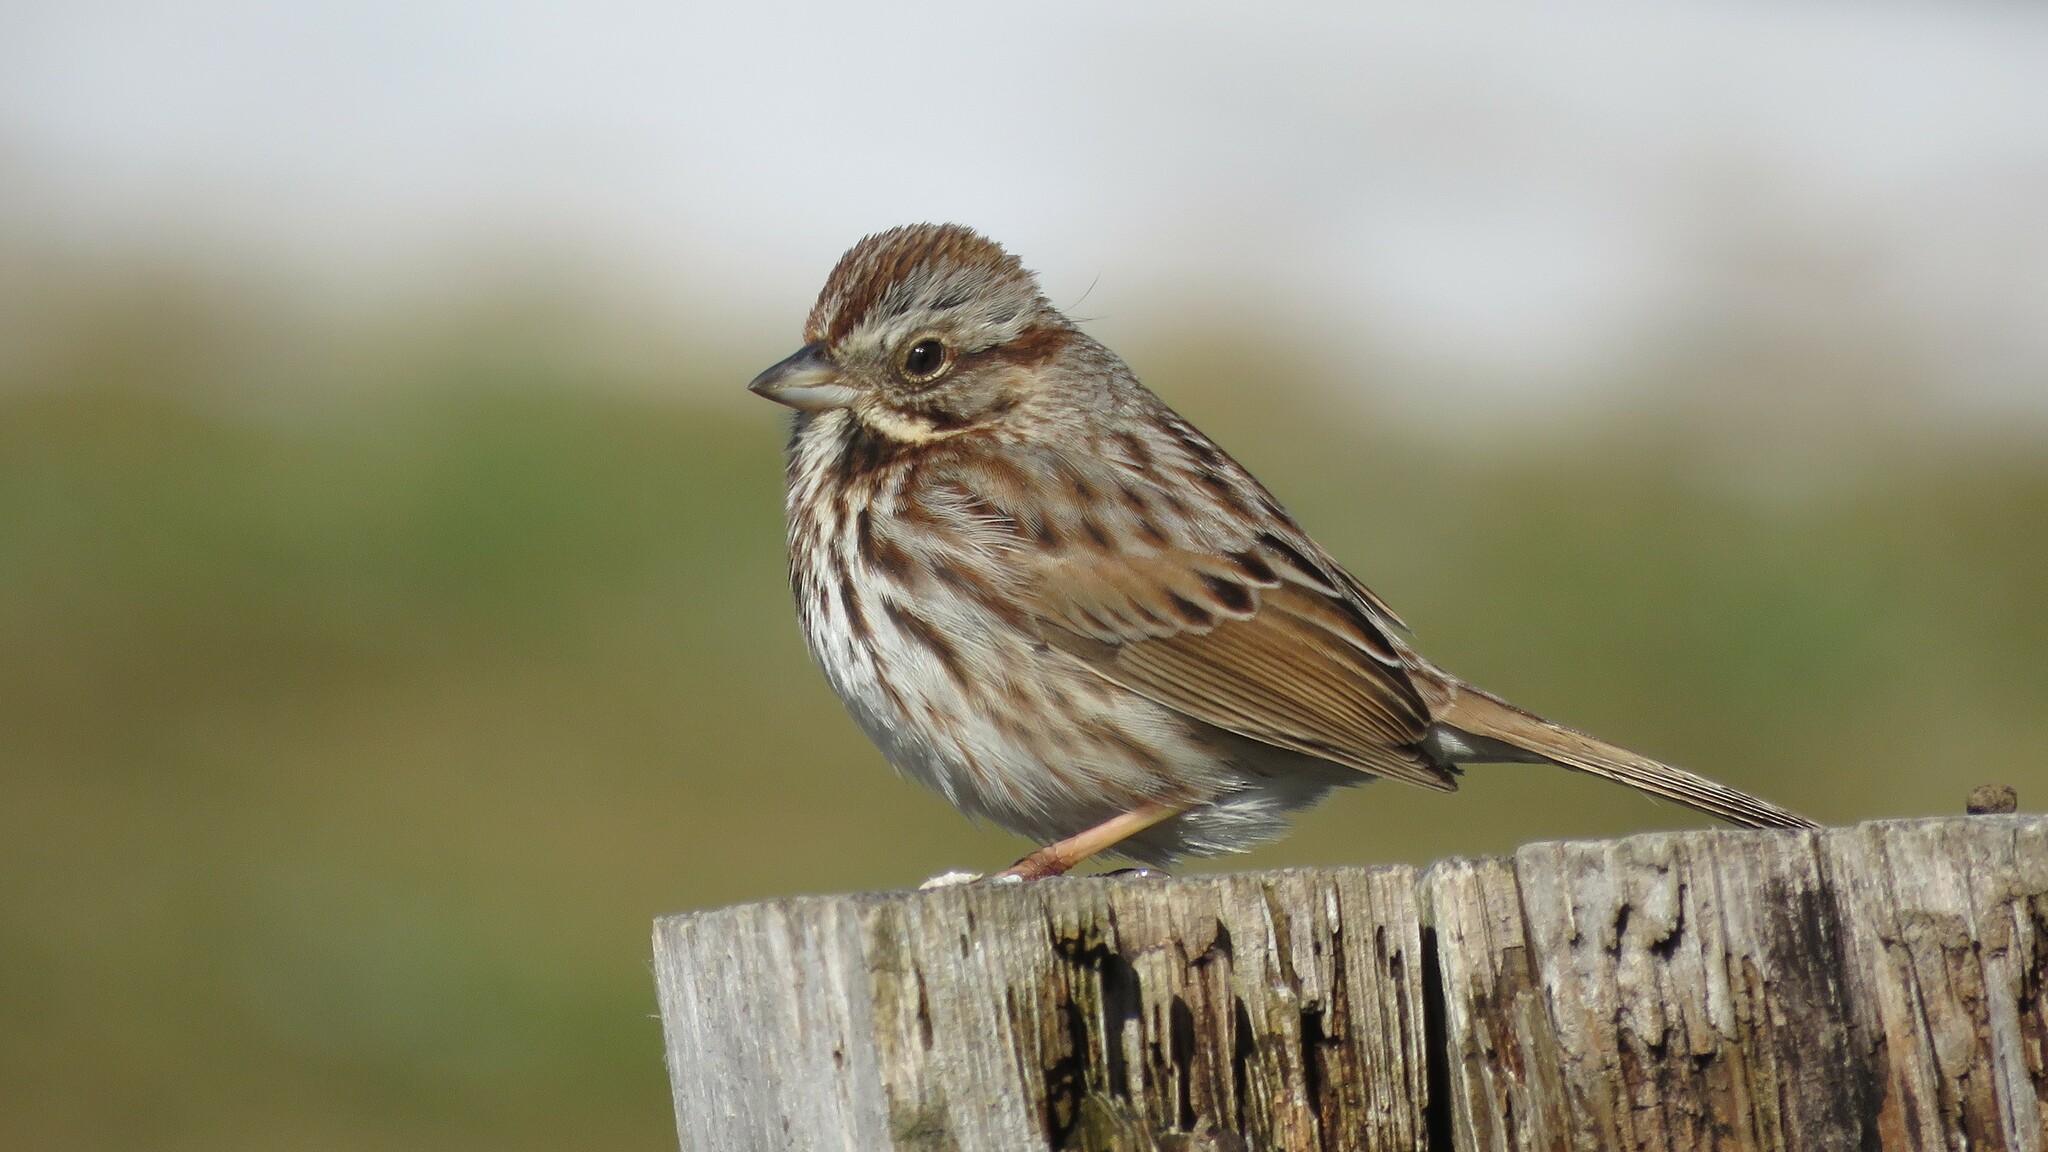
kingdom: Animalia
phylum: Chordata
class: Aves
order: Passeriformes
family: Passerellidae
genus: Melospiza
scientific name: Melospiza melodia
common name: Song sparrow
